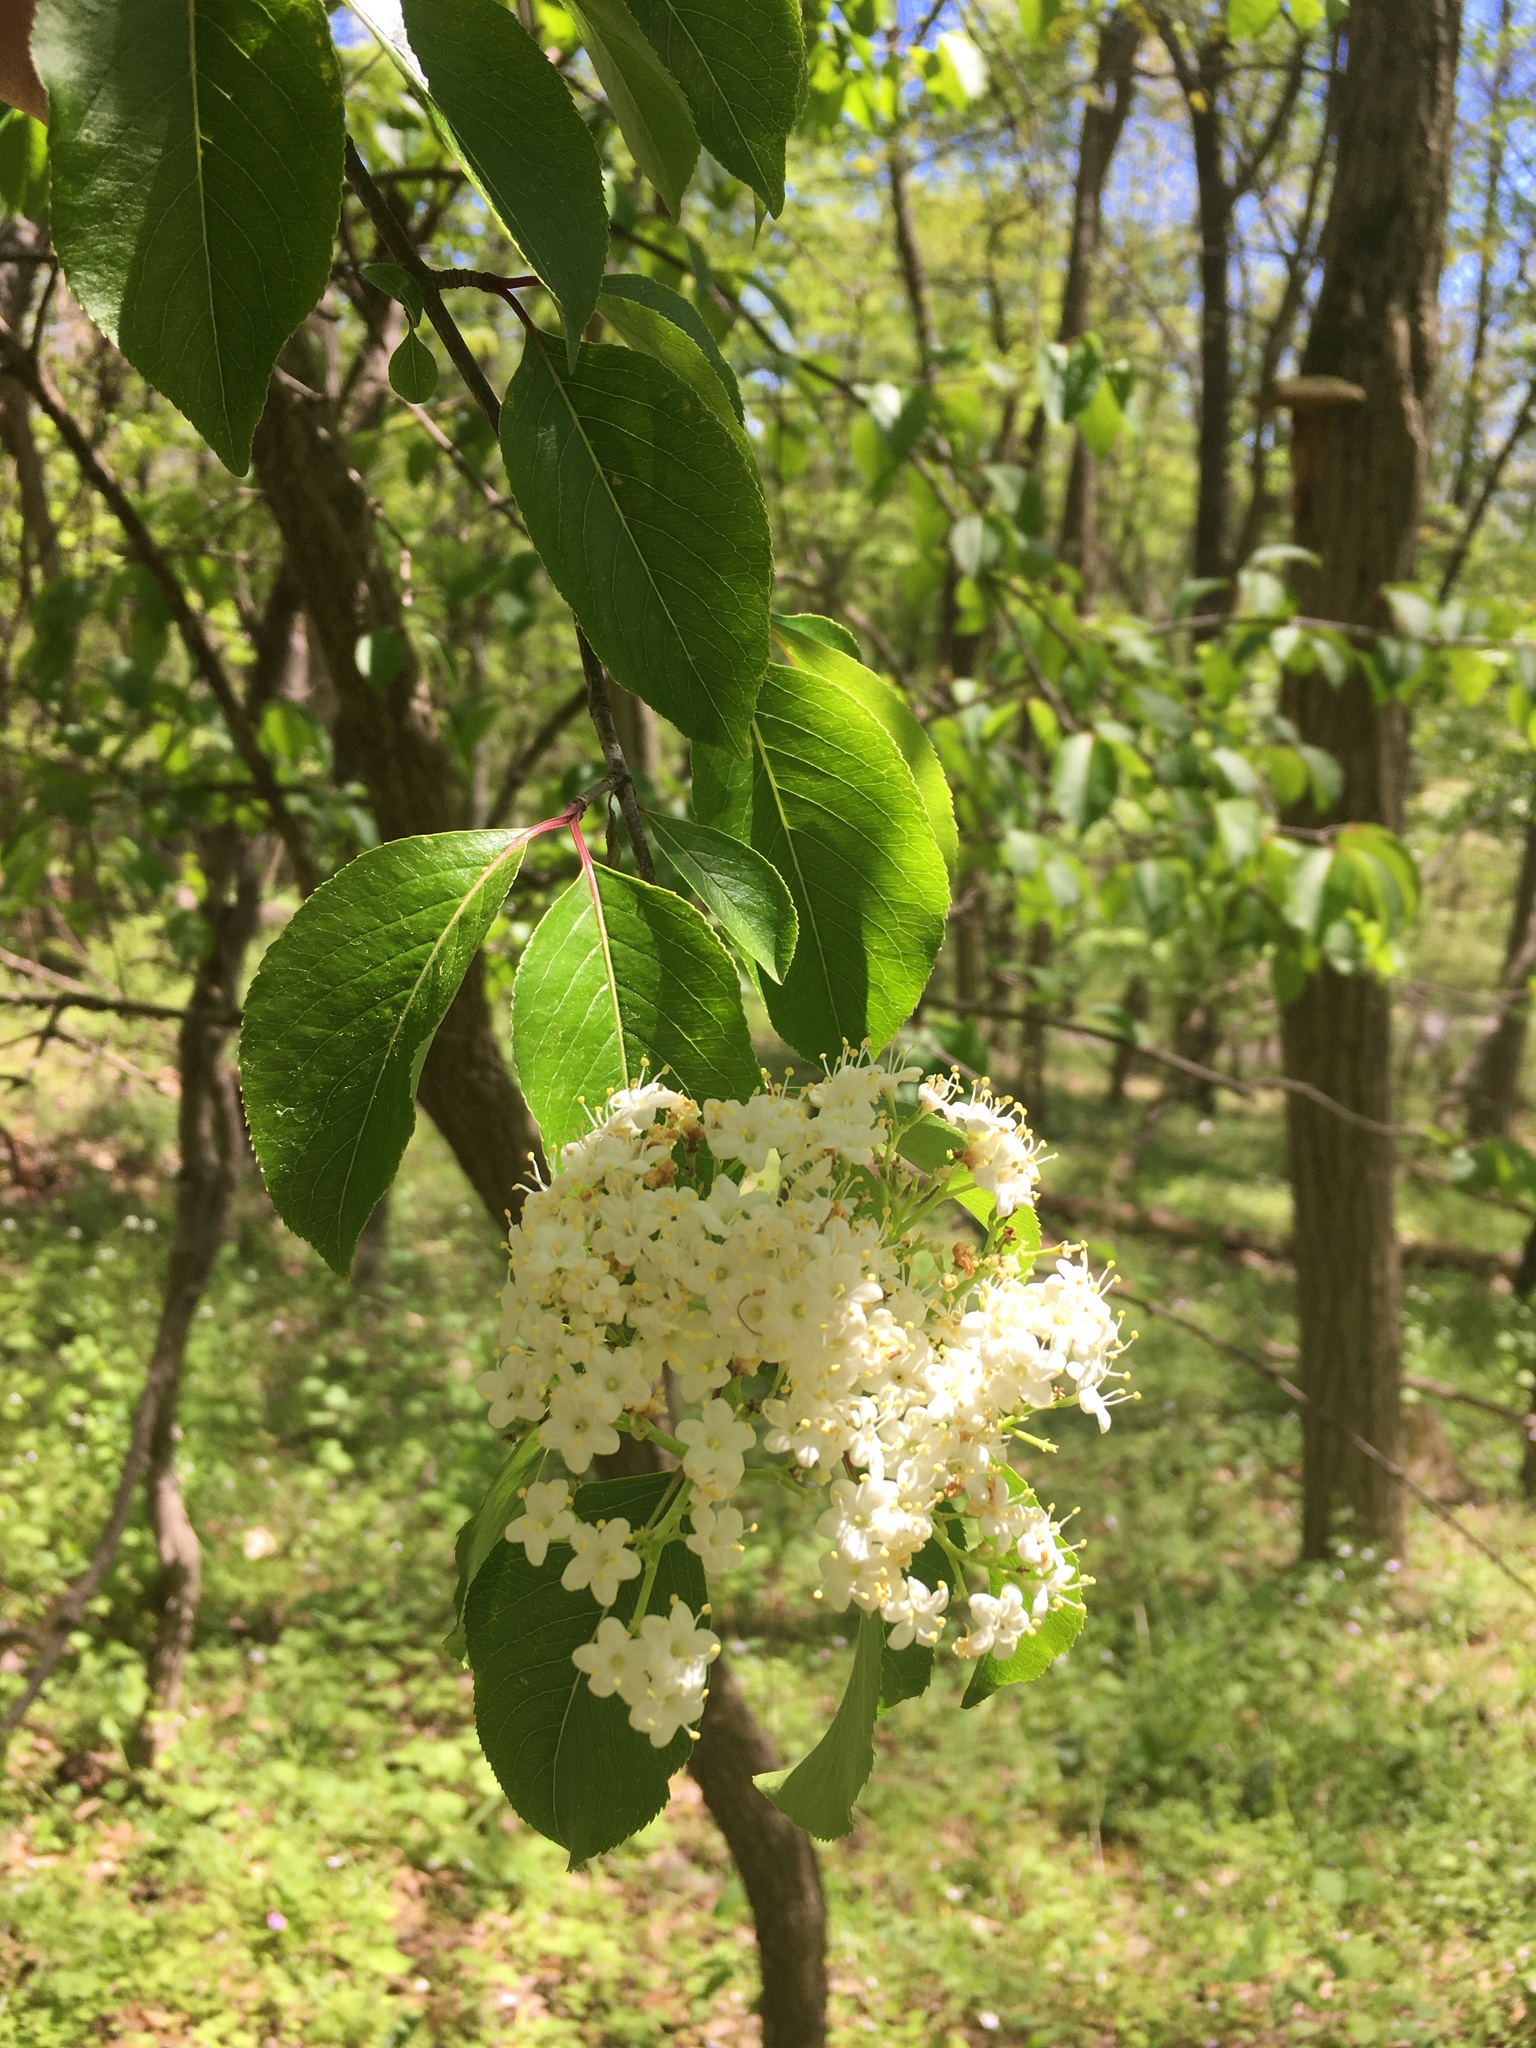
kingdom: Plantae
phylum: Tracheophyta
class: Magnoliopsida
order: Dipsacales
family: Viburnaceae
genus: Viburnum
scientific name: Viburnum prunifolium
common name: Black haw
